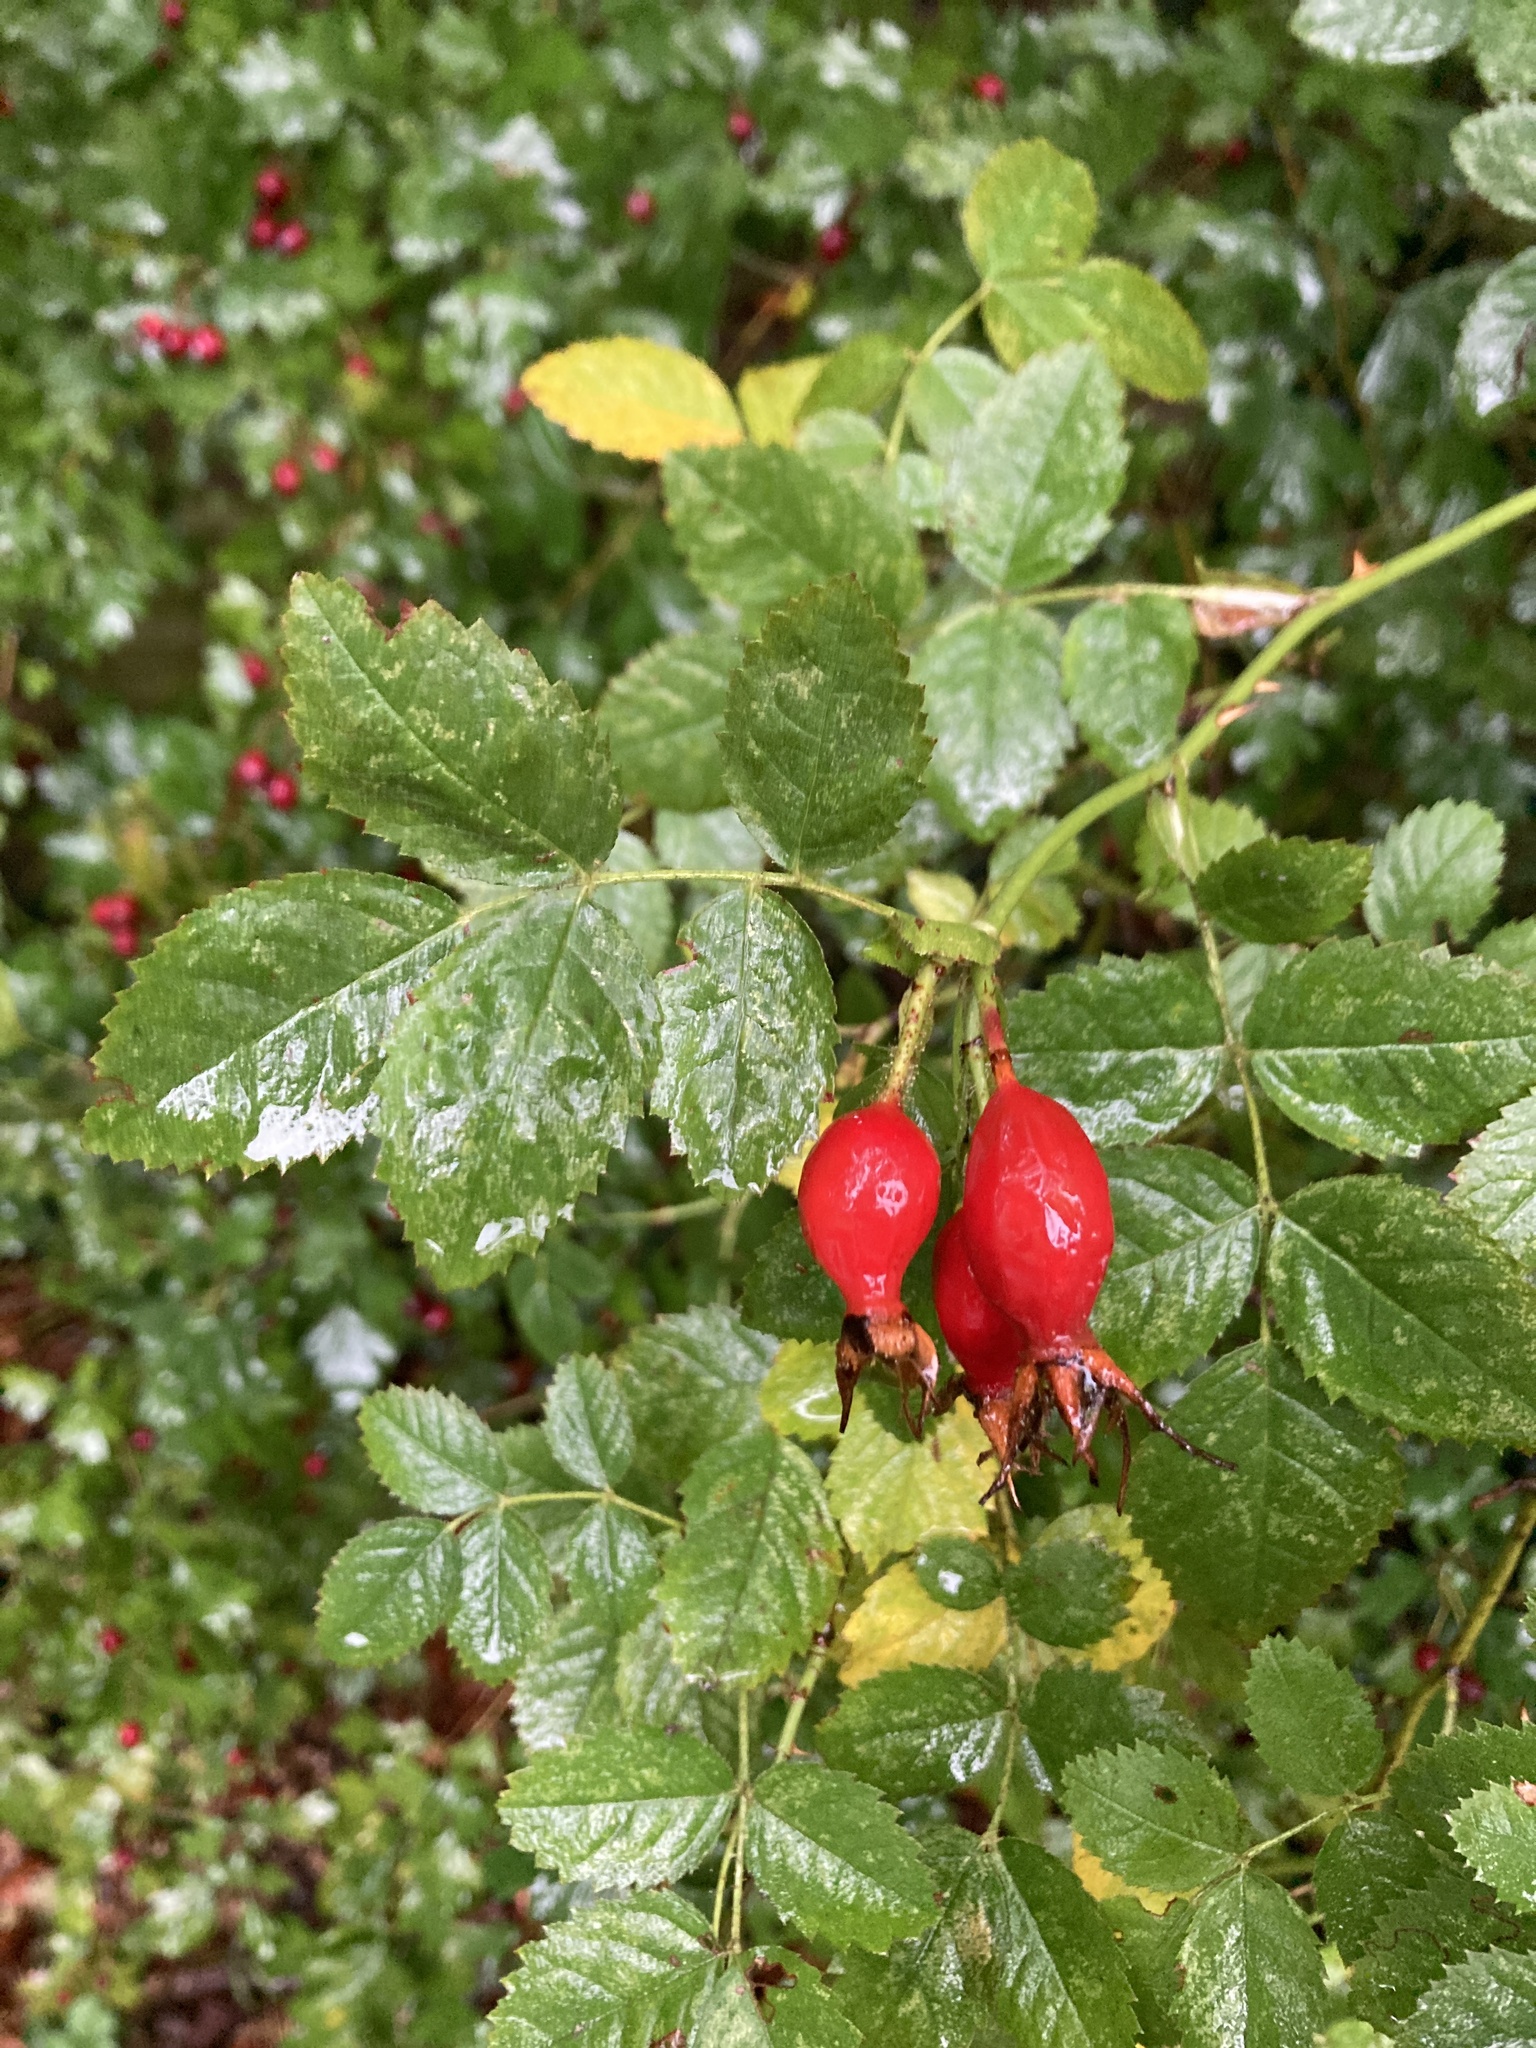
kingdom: Plantae
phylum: Tracheophyta
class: Magnoliopsida
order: Rosales
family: Rosaceae
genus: Rosa
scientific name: Rosa rubiginosa
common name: Sweet-briar
